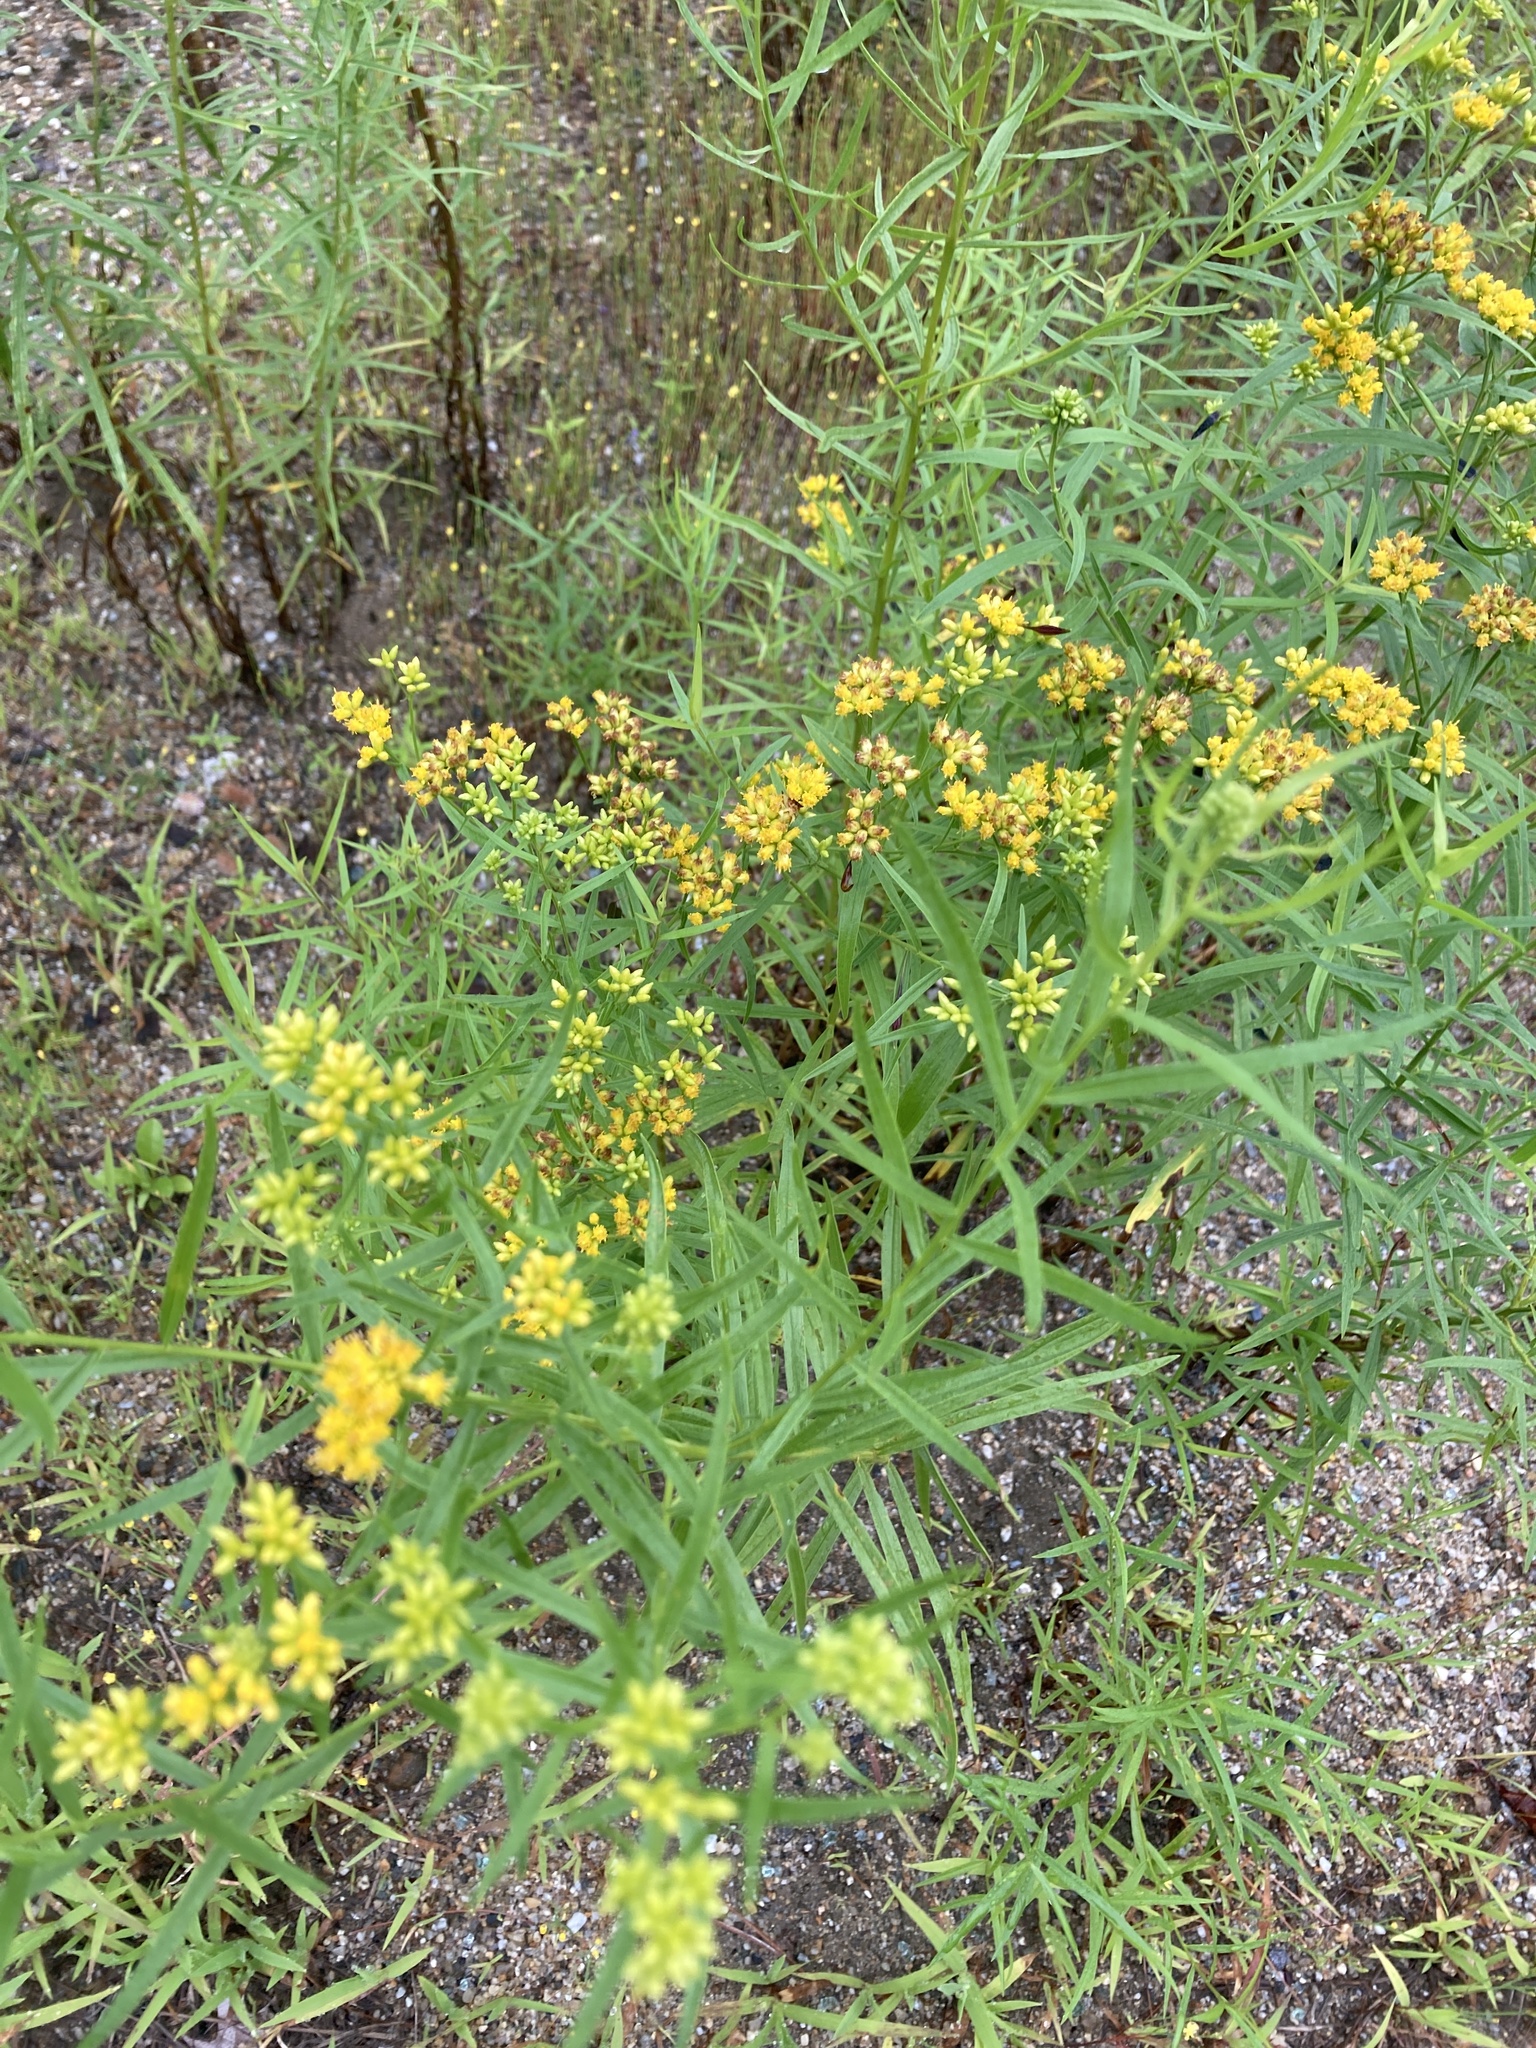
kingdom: Plantae
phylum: Tracheophyta
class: Magnoliopsida
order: Asterales
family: Asteraceae
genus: Euthamia
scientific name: Euthamia graminifolia
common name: Common goldentop
